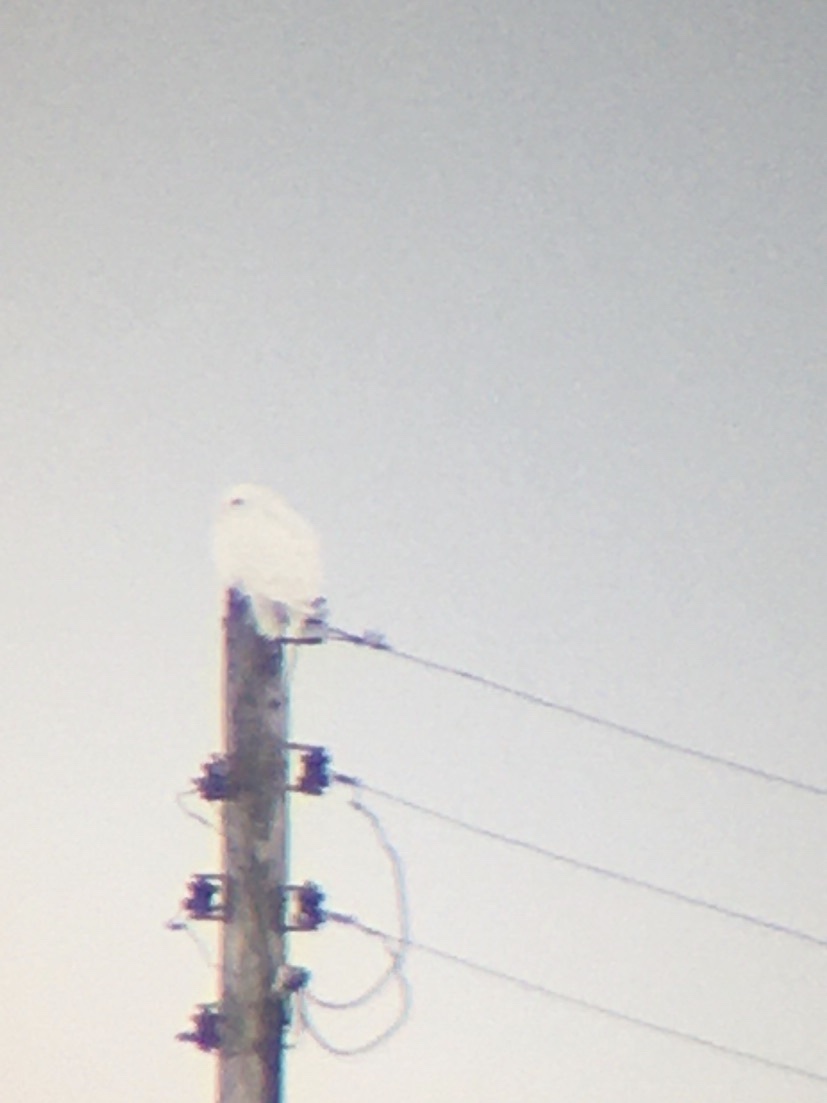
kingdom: Animalia
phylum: Chordata
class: Aves
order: Strigiformes
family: Strigidae
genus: Bubo
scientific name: Bubo scandiacus
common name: Snowy owl
